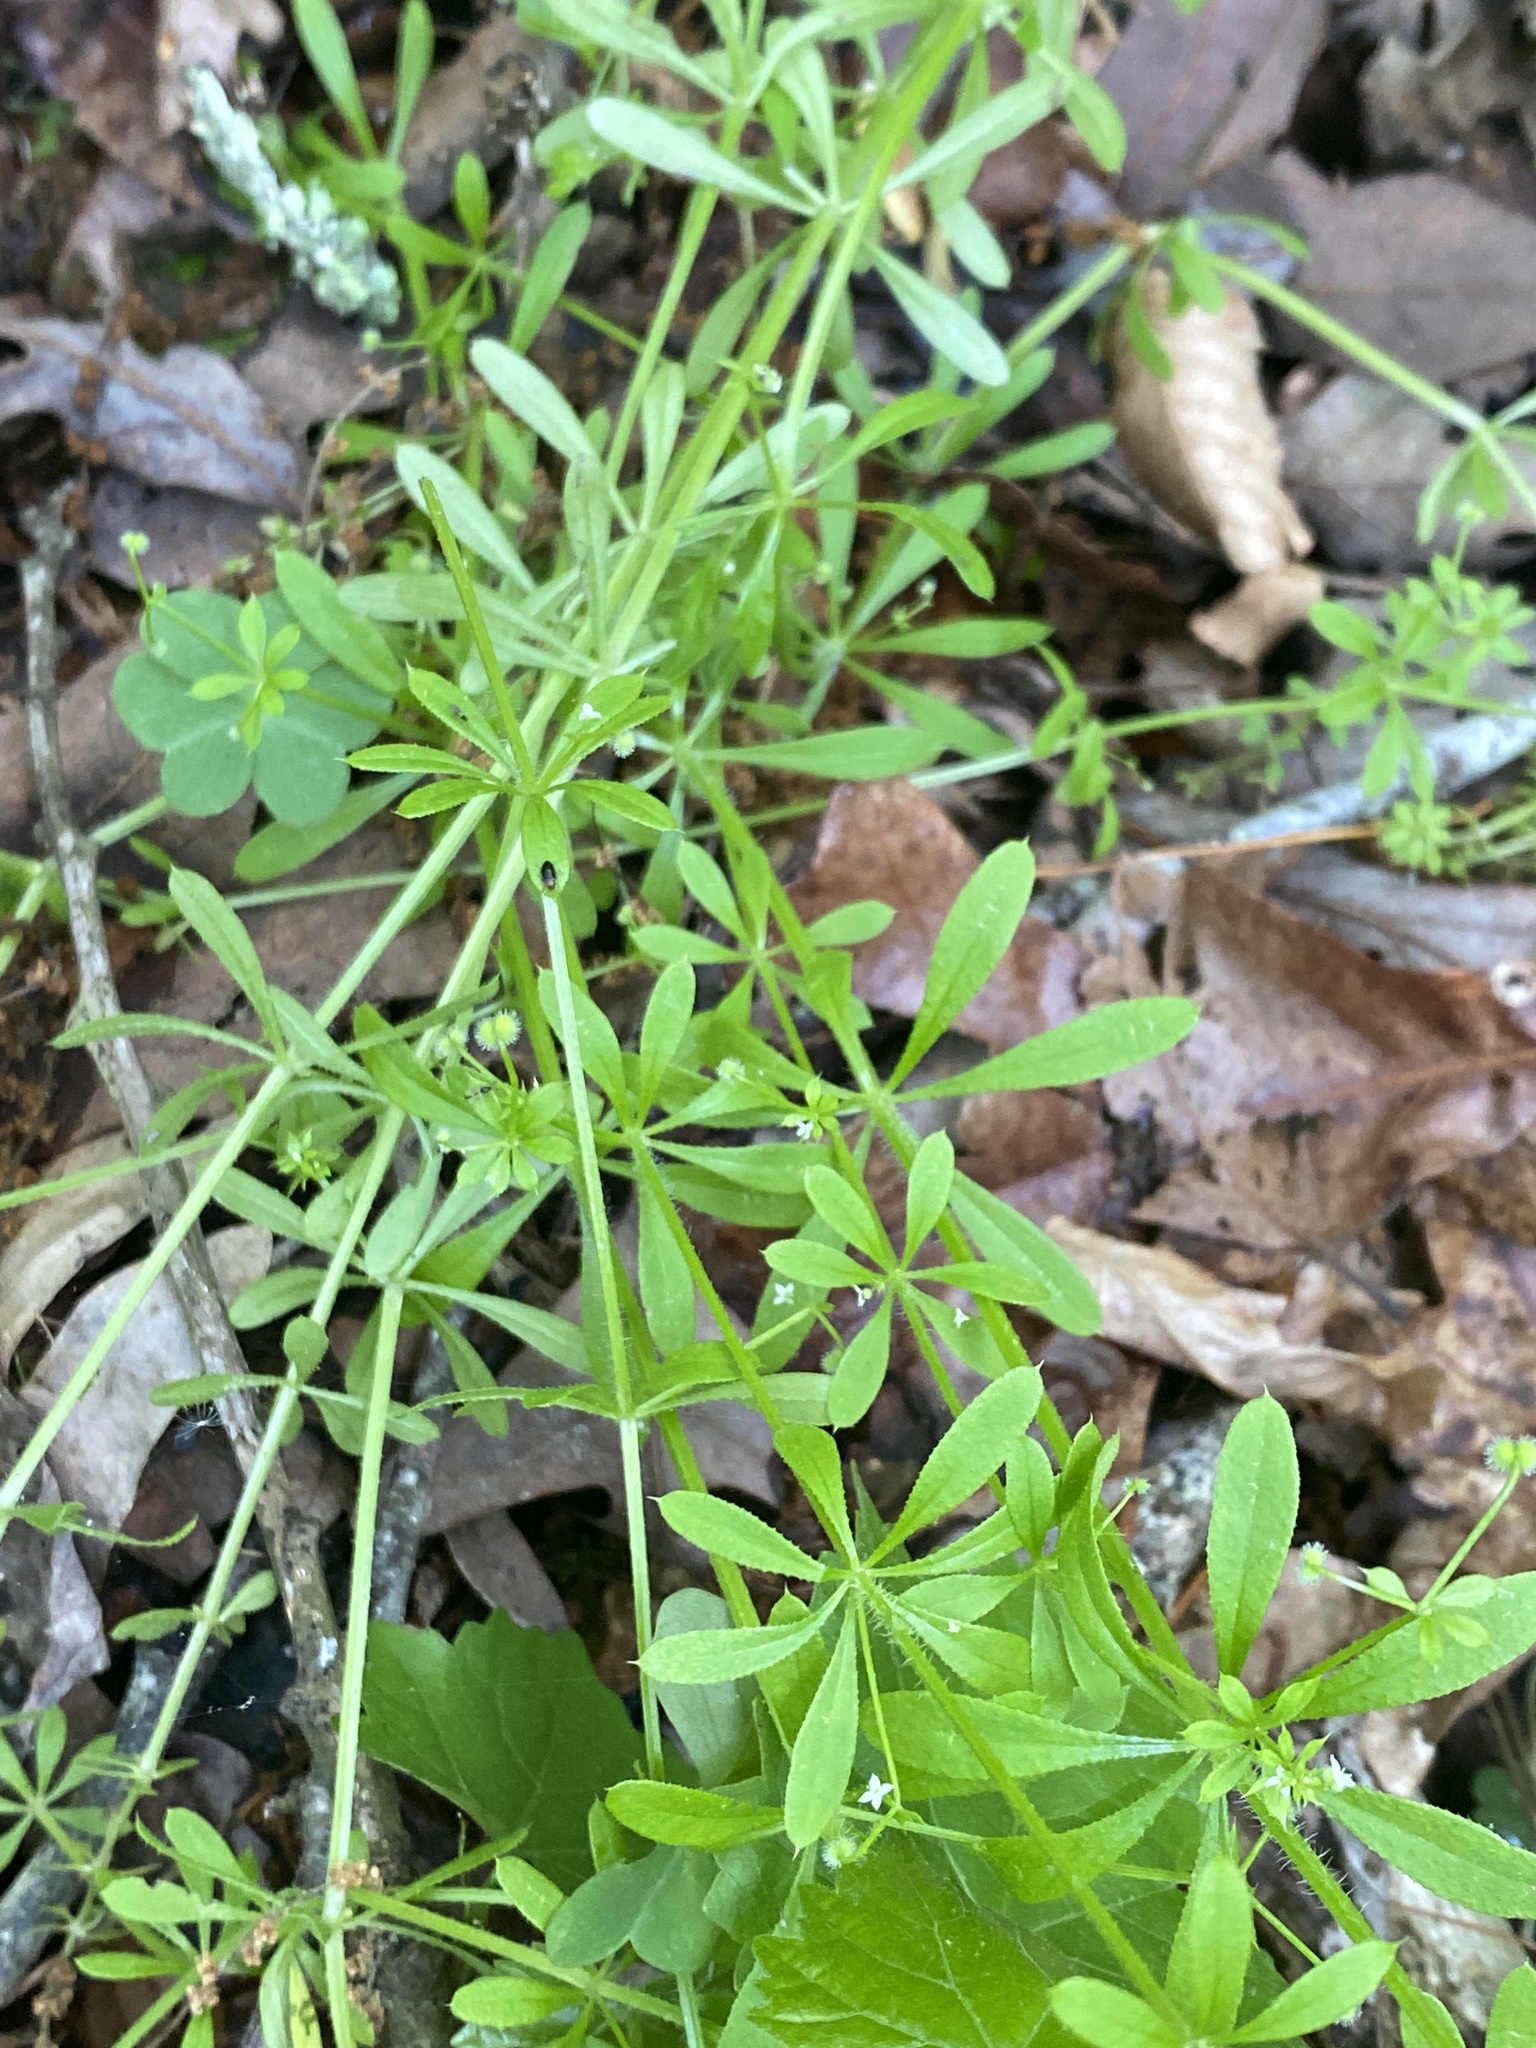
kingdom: Plantae
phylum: Tracheophyta
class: Magnoliopsida
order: Gentianales
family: Rubiaceae
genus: Galium
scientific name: Galium aparine
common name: Cleavers
